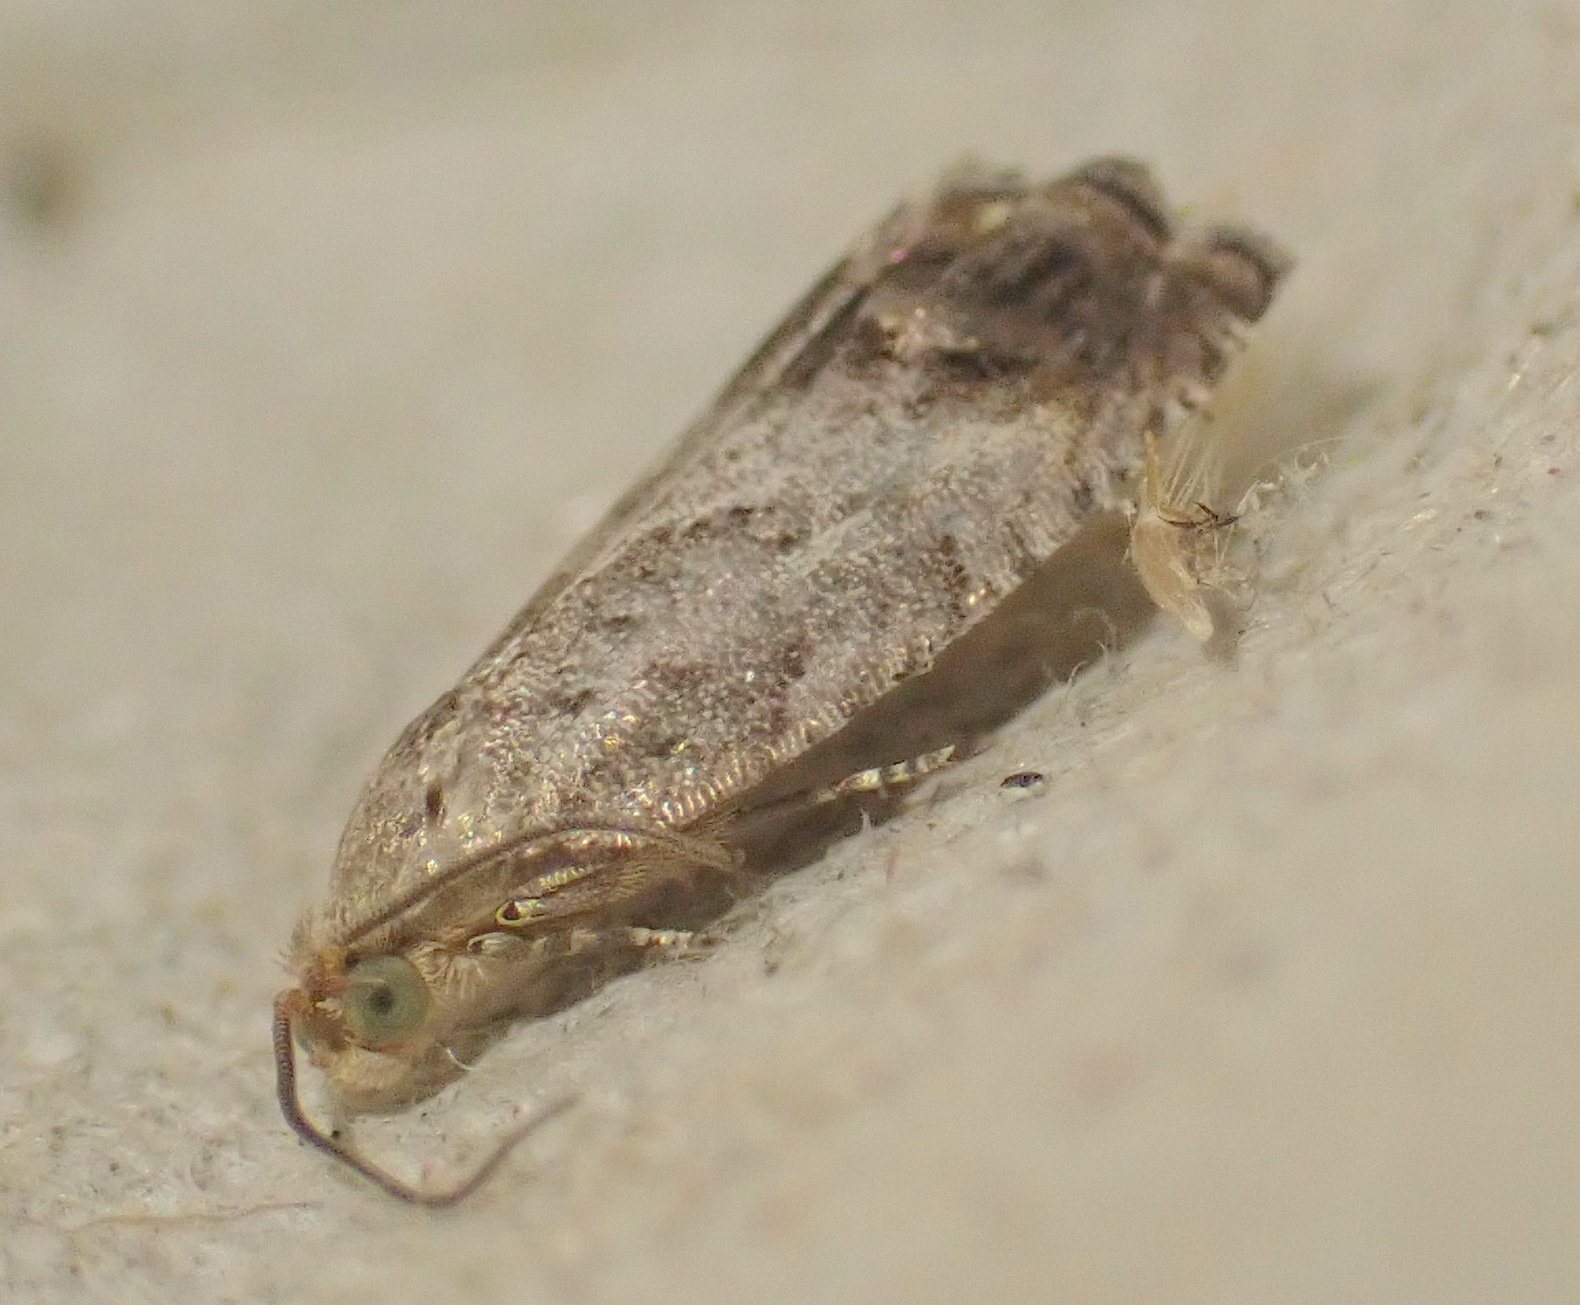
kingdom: Animalia
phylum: Arthropoda
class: Insecta
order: Lepidoptera
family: Tortricidae
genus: Cydia
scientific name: Cydia splendana
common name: De: kastanienwickler, eichenwickler es: oruga de la castaña fr: carpocapse des châtaignes it: cidia o tortrice tardiva delle castagne pt: bichado das castanhas gb: acorn moth, chestnut fruit tortrix
